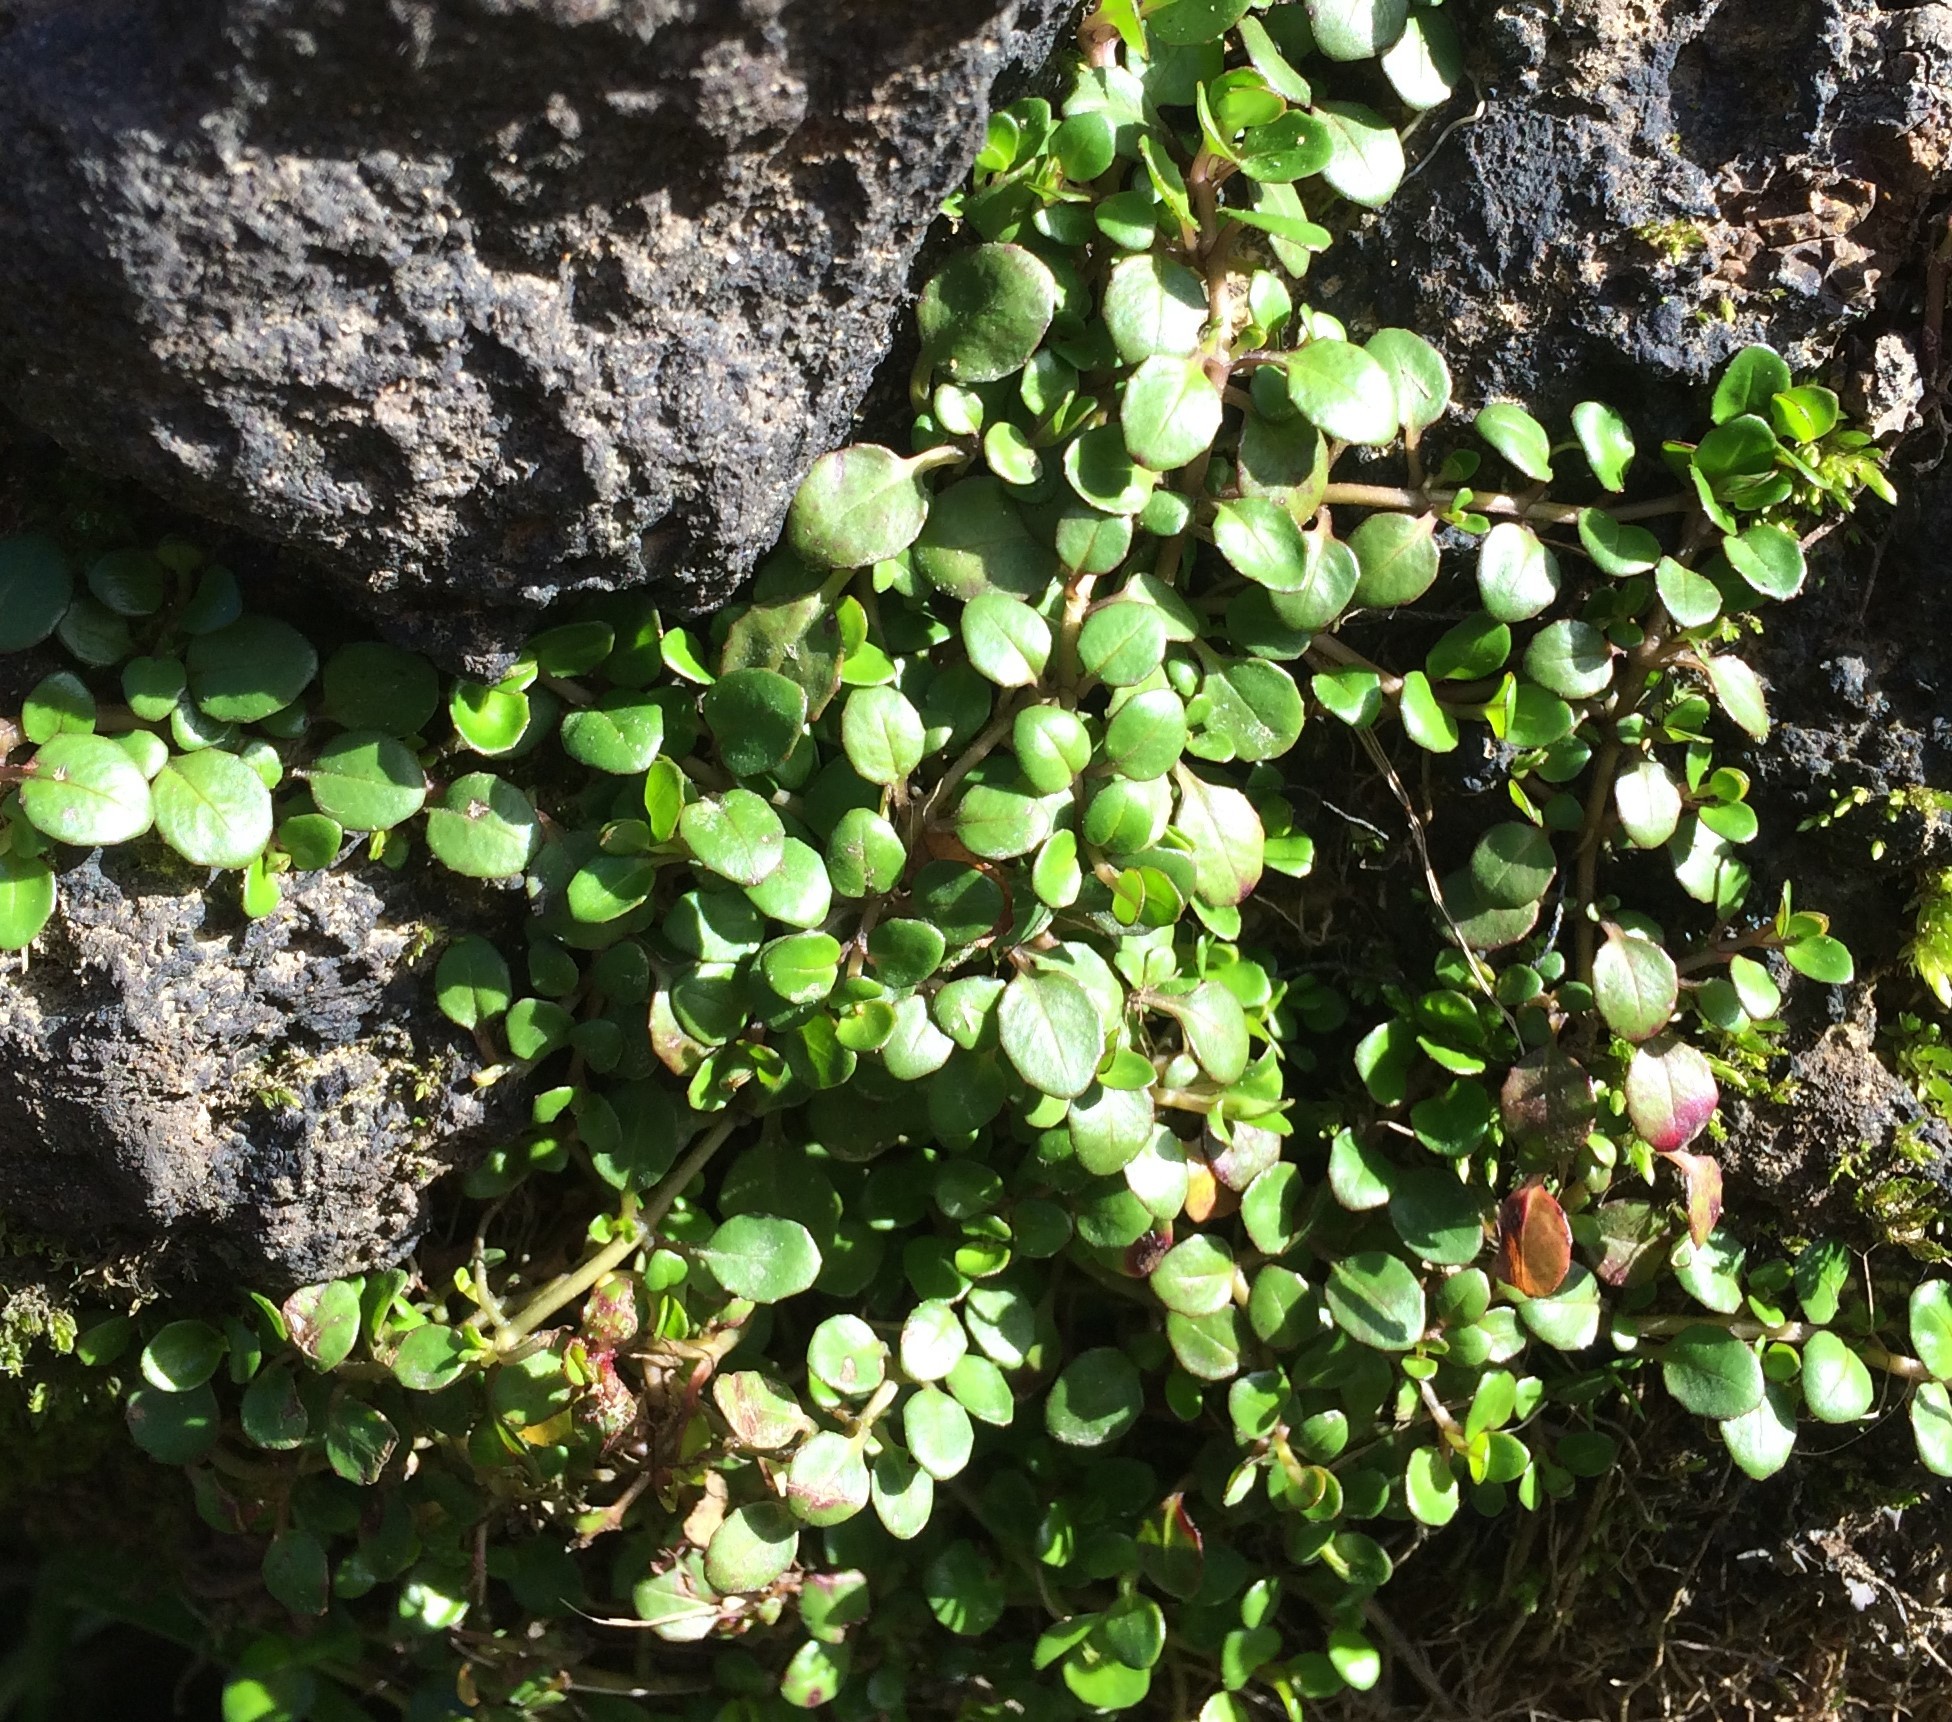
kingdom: Plantae
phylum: Tracheophyta
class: Magnoliopsida
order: Myrtales
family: Onagraceae
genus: Epilobium
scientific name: Epilobium brunnescens
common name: New zealand willowherb
